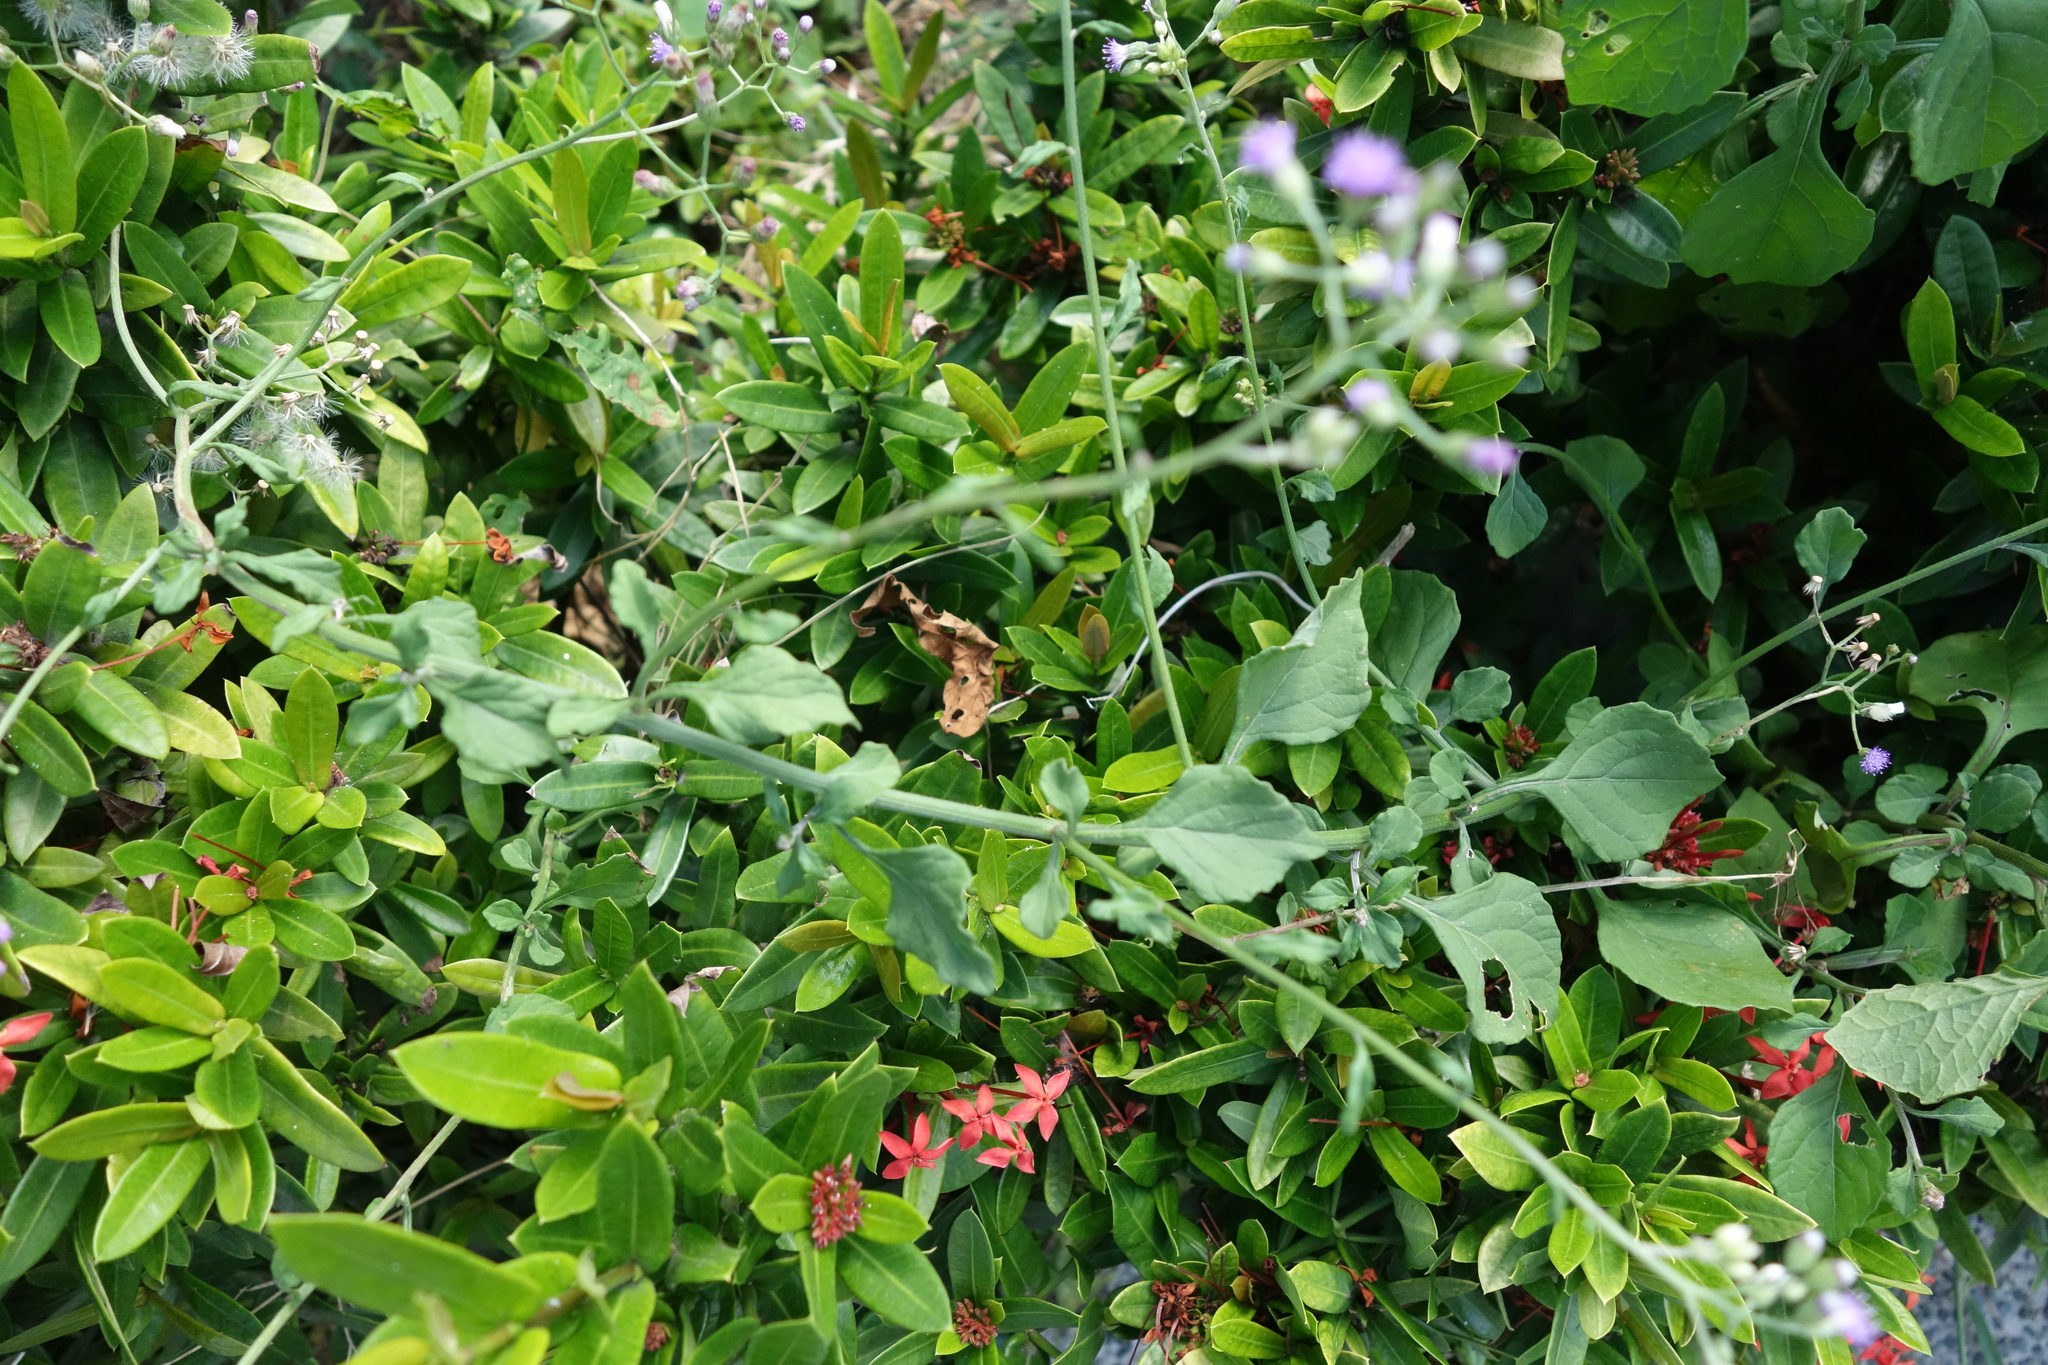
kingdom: Plantae
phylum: Tracheophyta
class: Magnoliopsida
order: Asterales
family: Asteraceae
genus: Cyanthillium
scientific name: Cyanthillium cinereum
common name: Little ironweed
